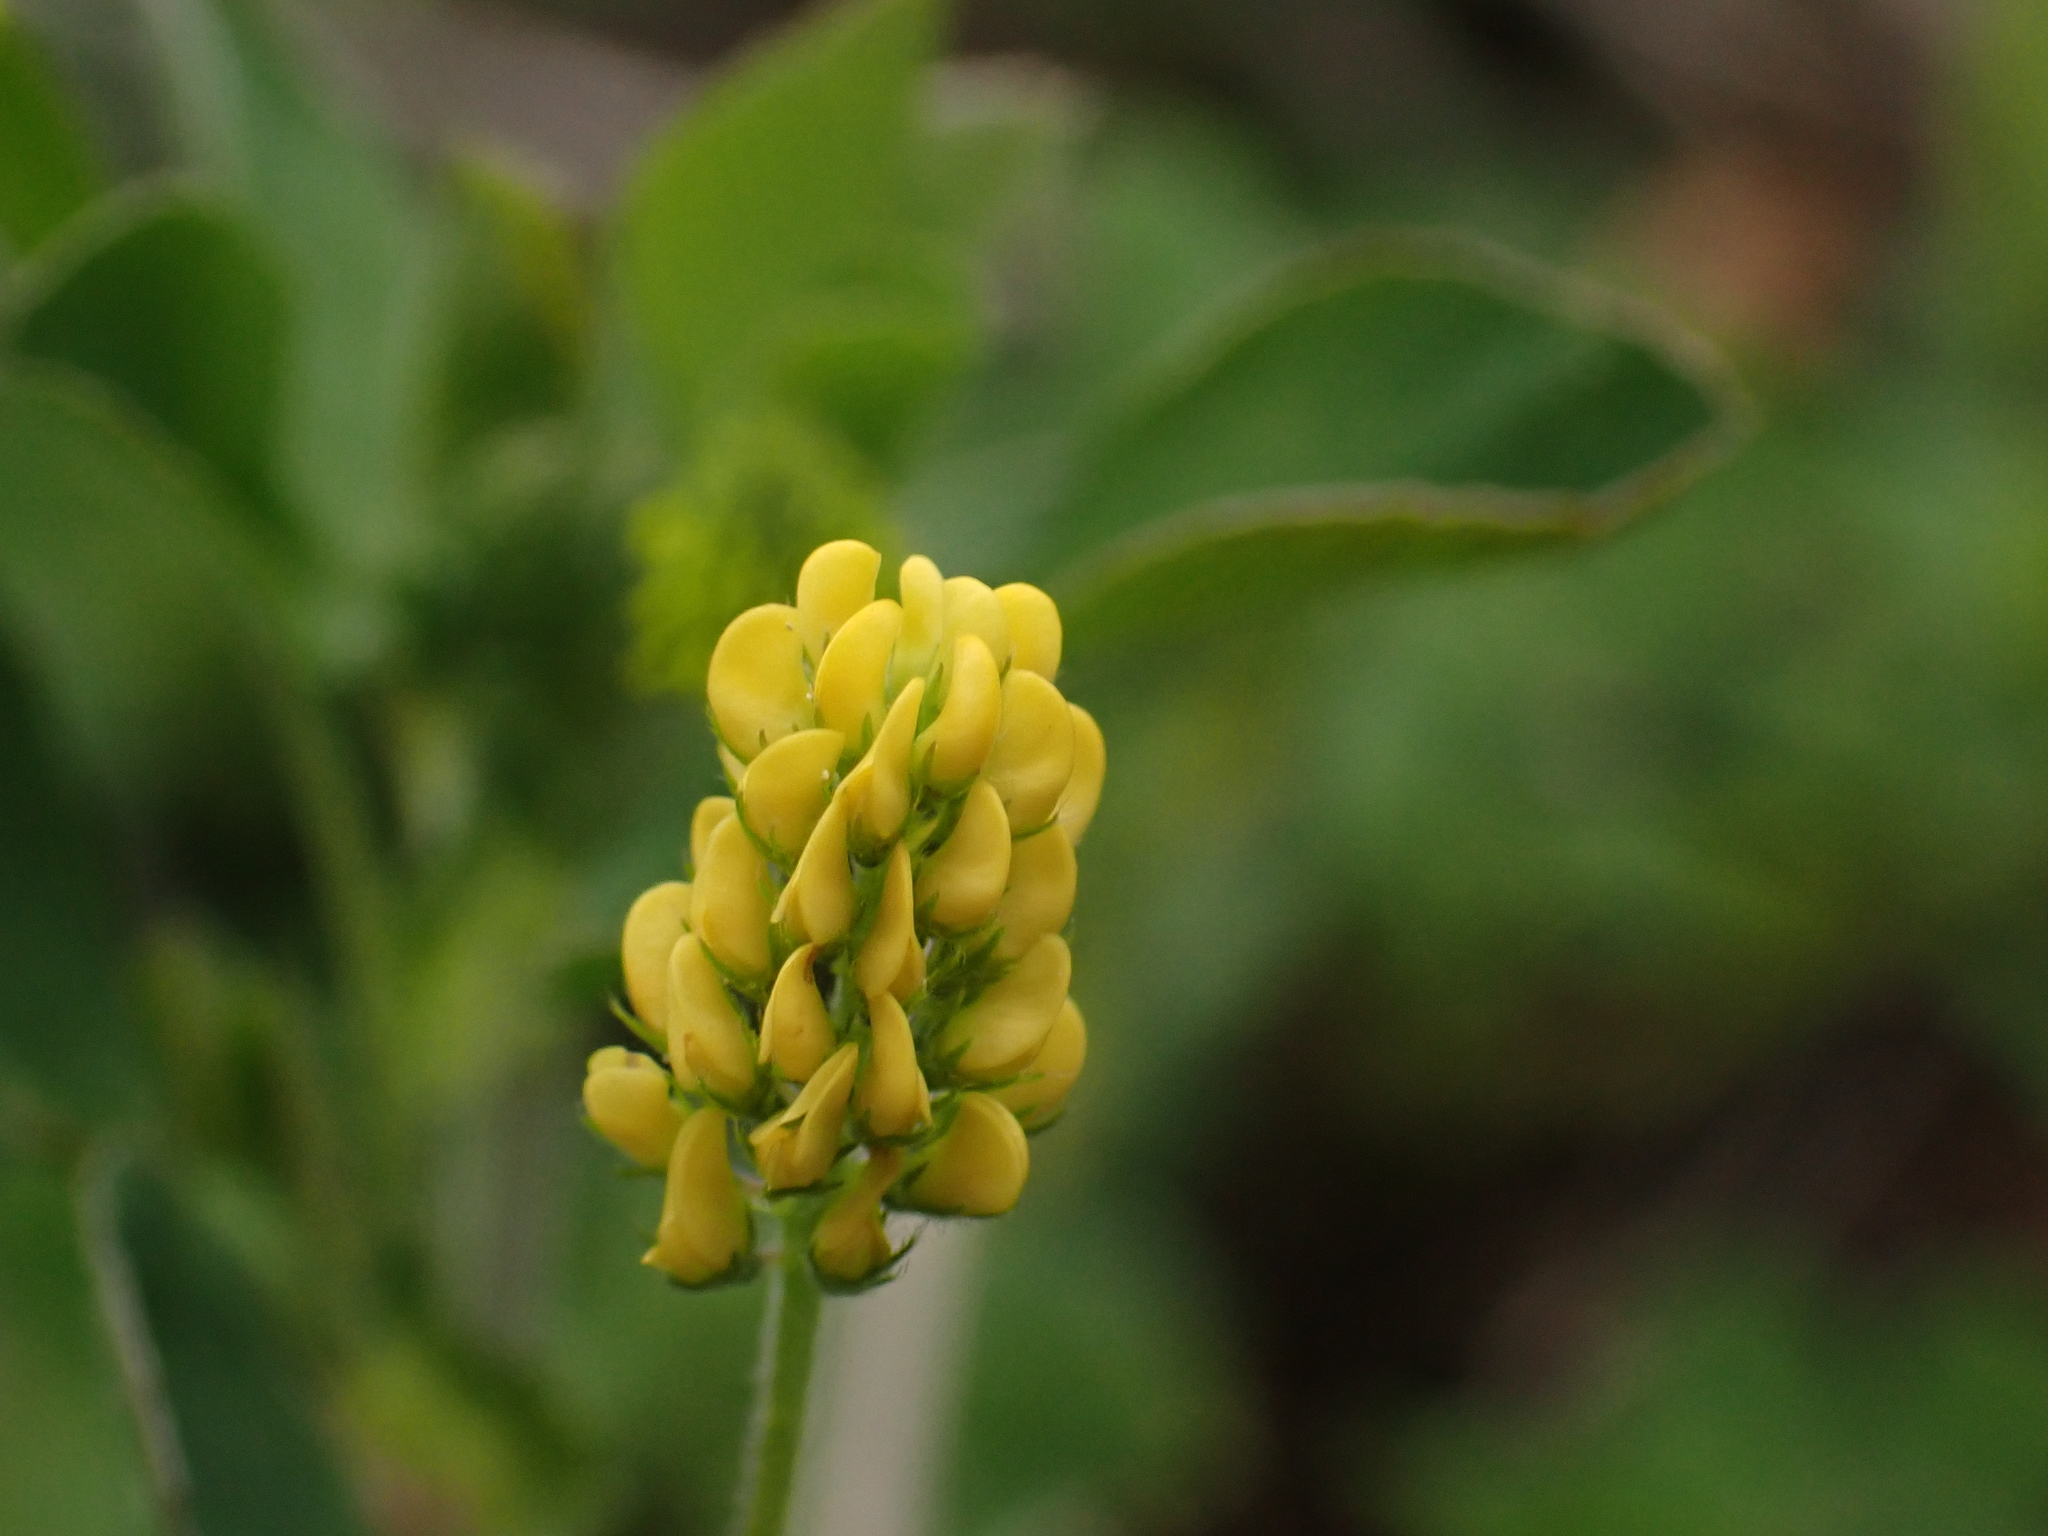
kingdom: Plantae
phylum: Tracheophyta
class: Magnoliopsida
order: Fabales
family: Fabaceae
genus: Medicago
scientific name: Medicago lupulina
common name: Black medick
